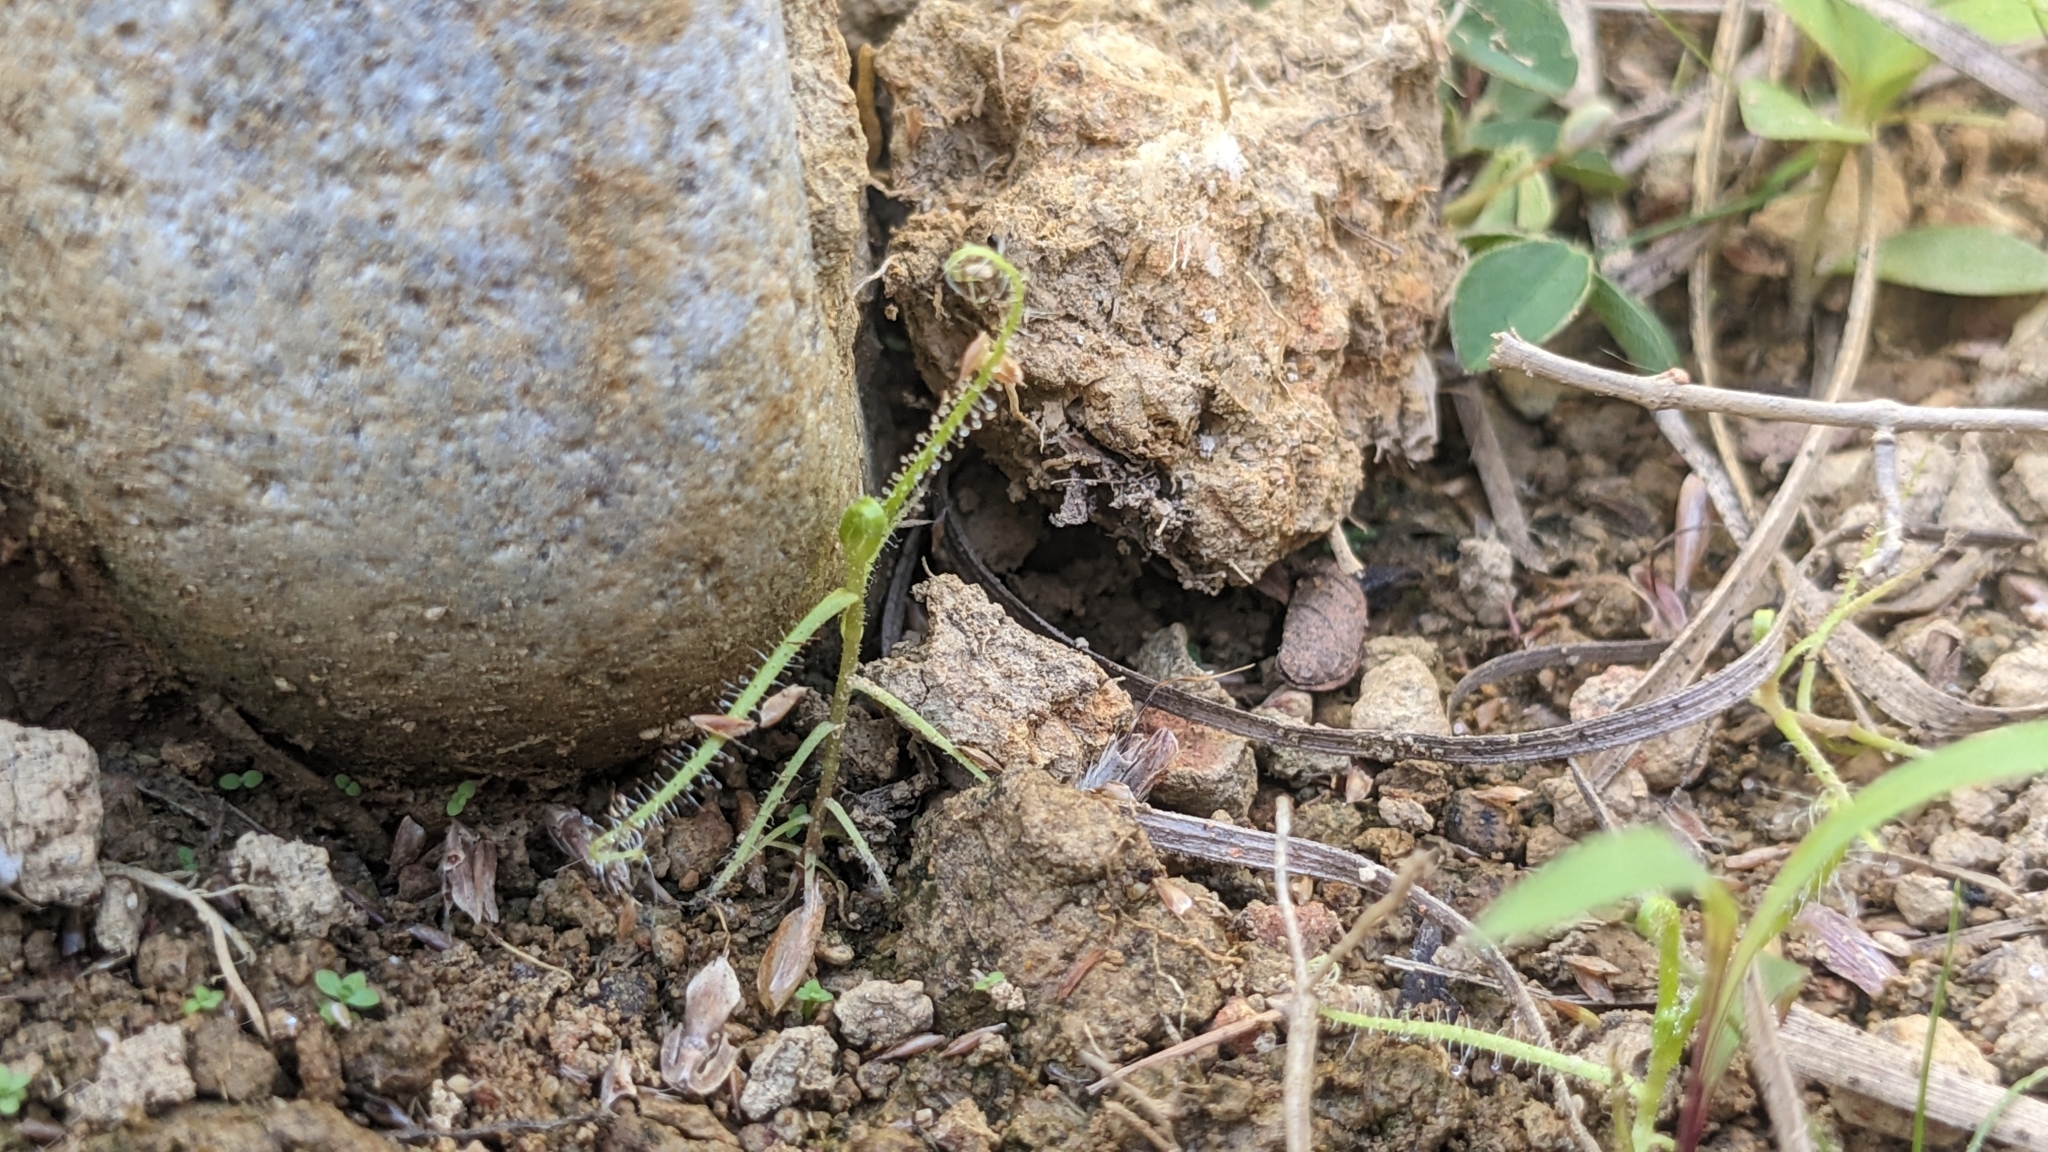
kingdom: Plantae
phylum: Tracheophyta
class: Magnoliopsida
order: Caryophyllales
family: Droseraceae
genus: Drosera
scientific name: Drosera finlaysoniana
